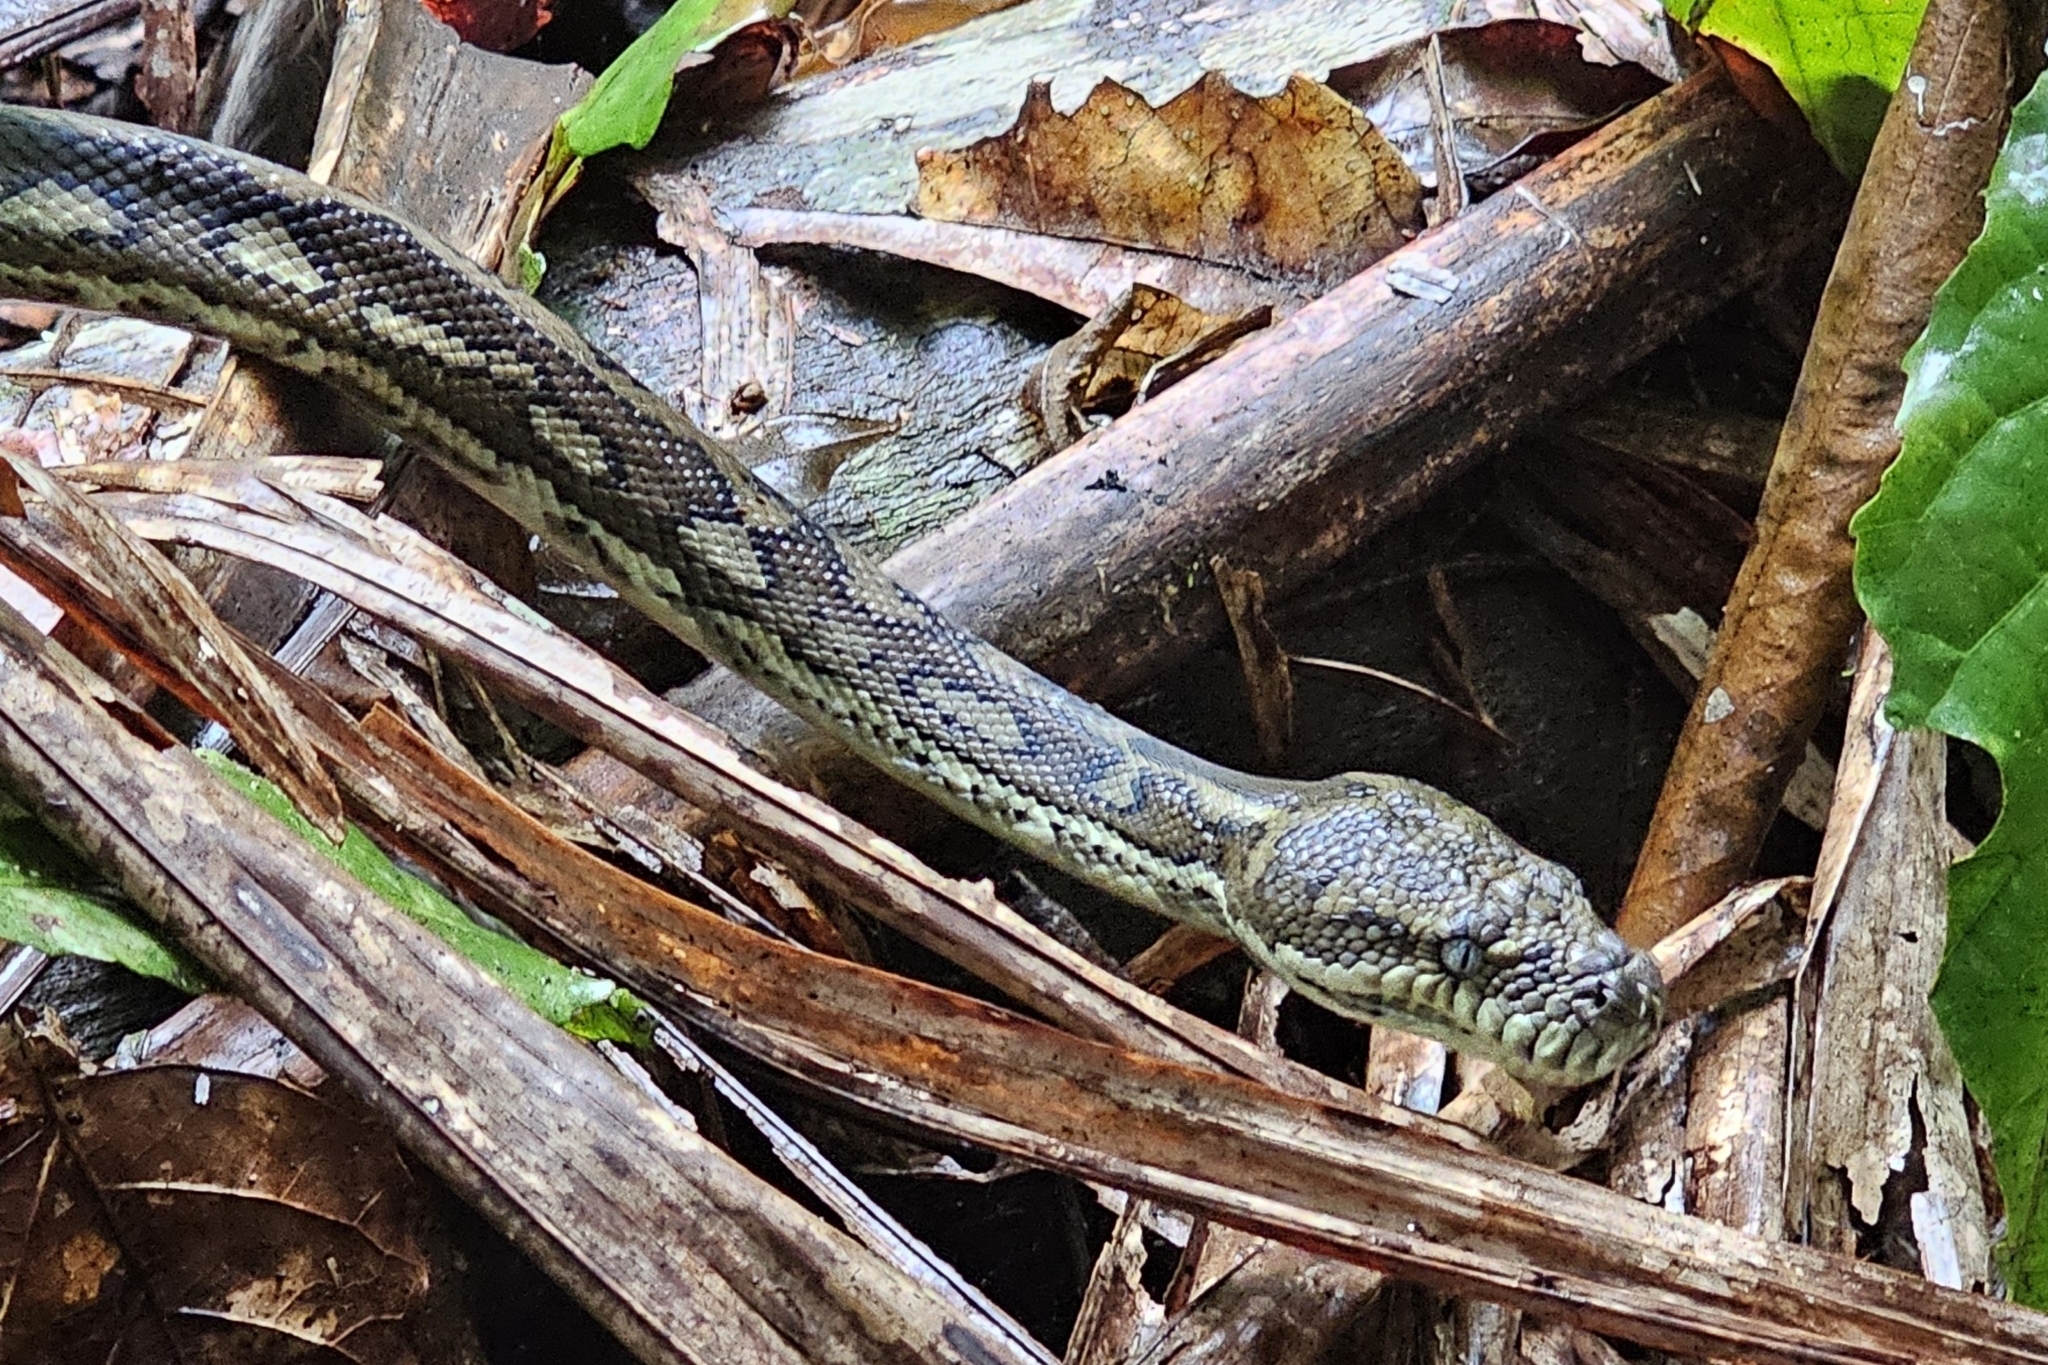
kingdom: Animalia
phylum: Chordata
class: Squamata
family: Pythonidae
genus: Morelia
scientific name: Morelia spilota
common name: Carpet python
